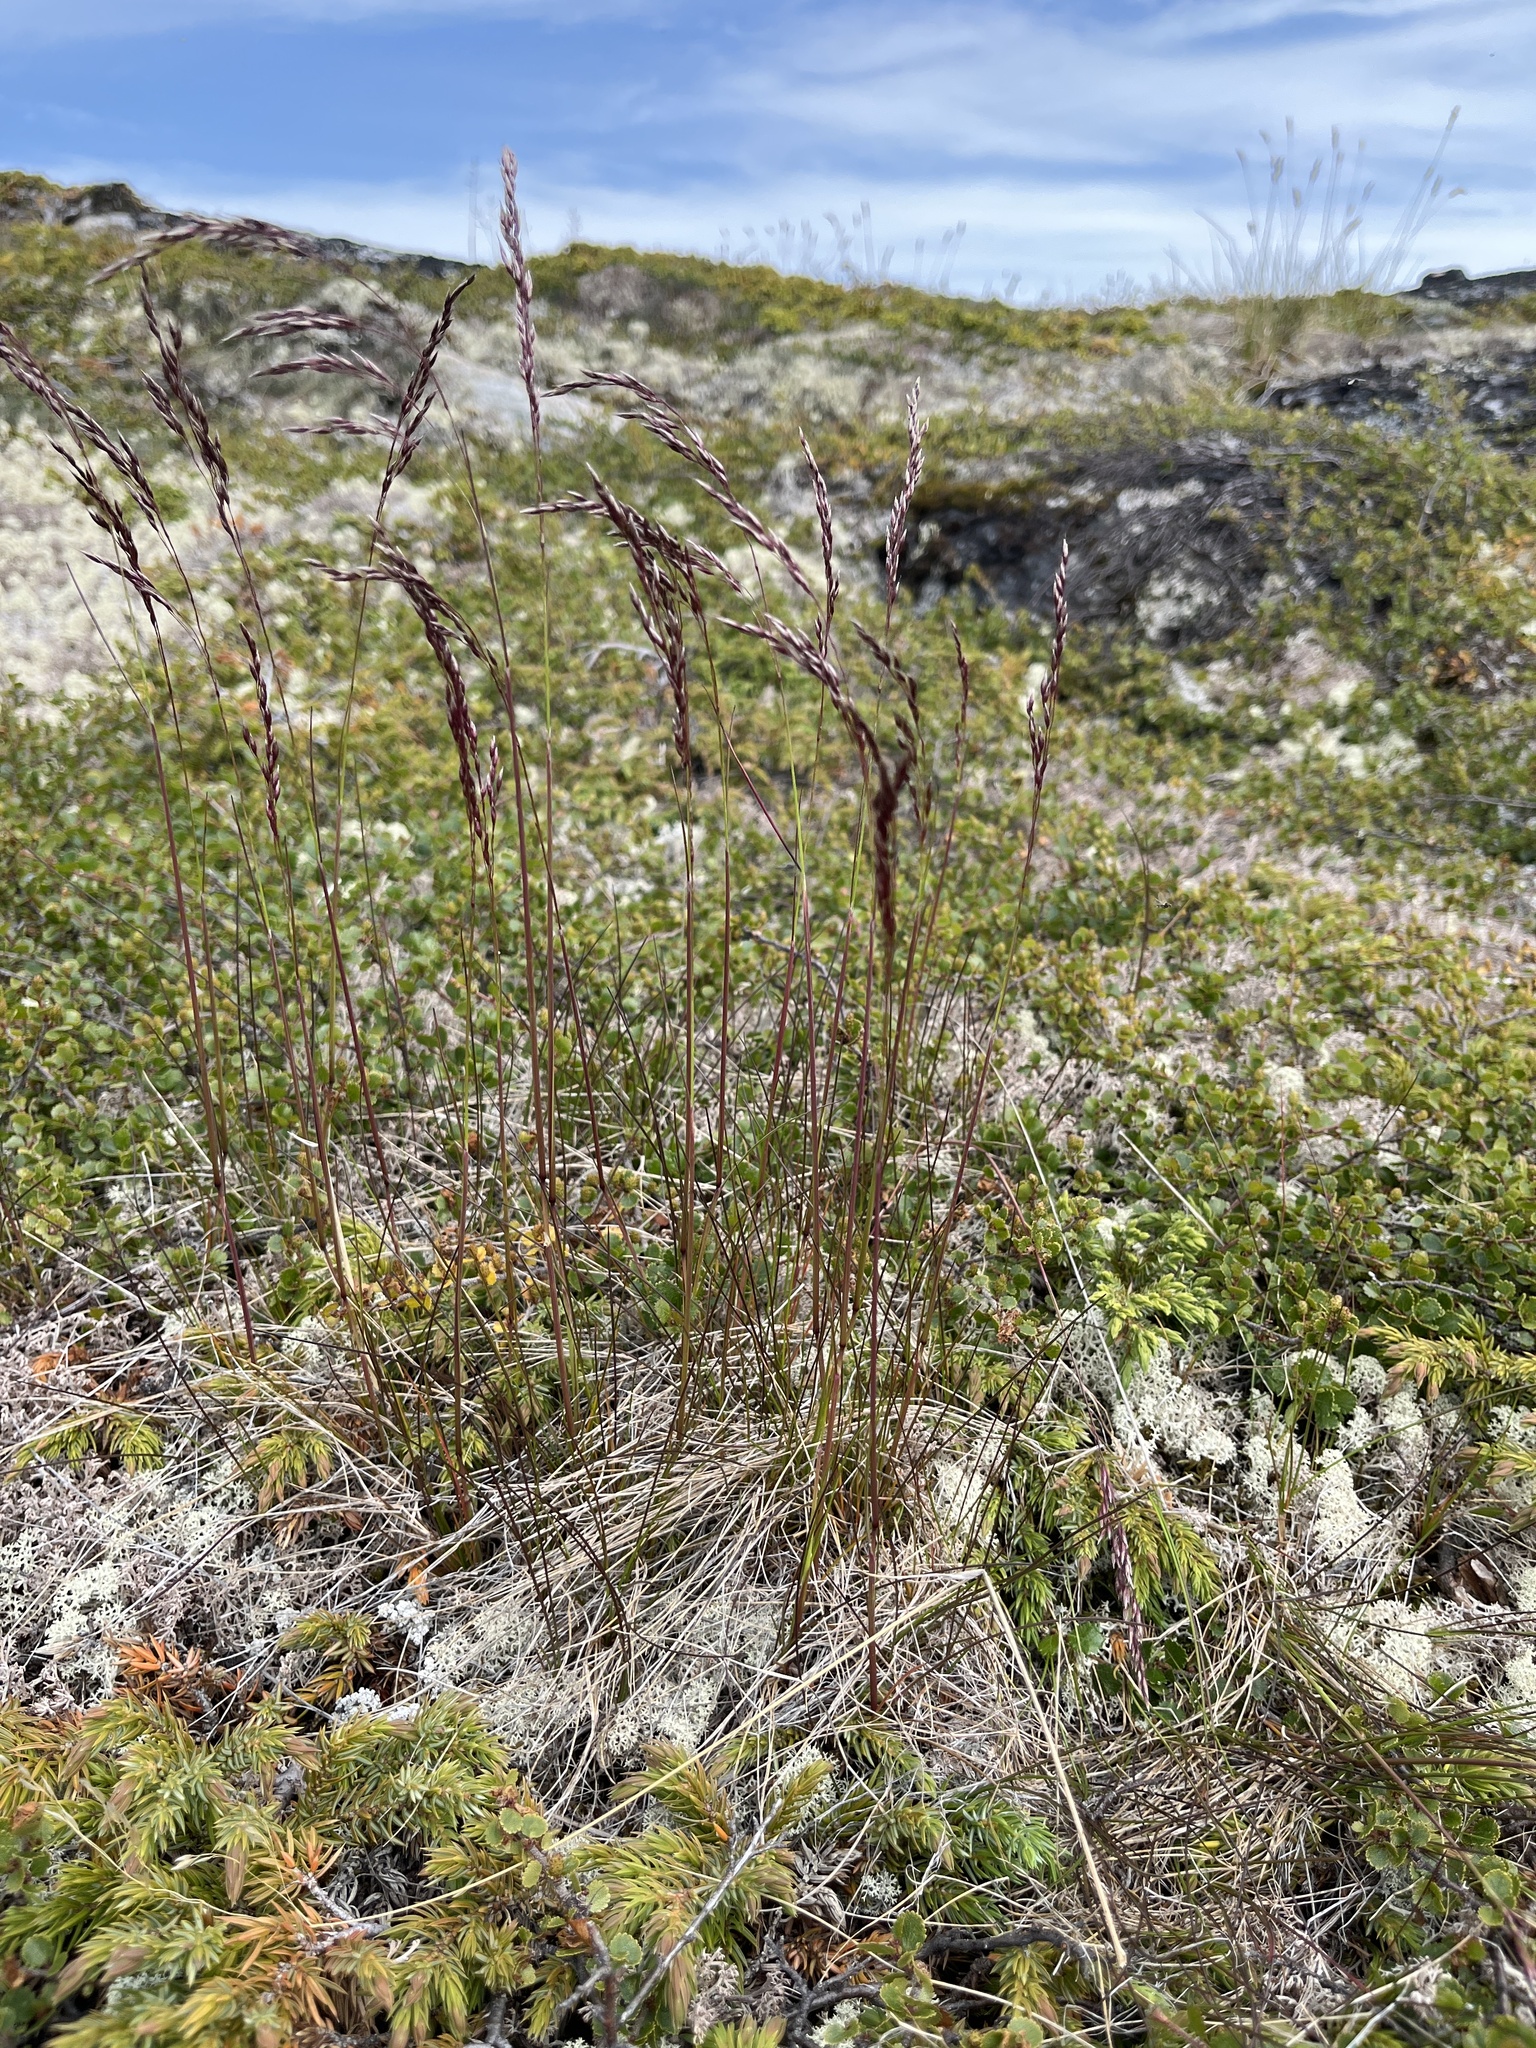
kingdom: Plantae
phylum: Tracheophyta
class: Liliopsida
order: Poales
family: Poaceae
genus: Avenella
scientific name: Avenella flexuosa
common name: Wavy hairgrass
